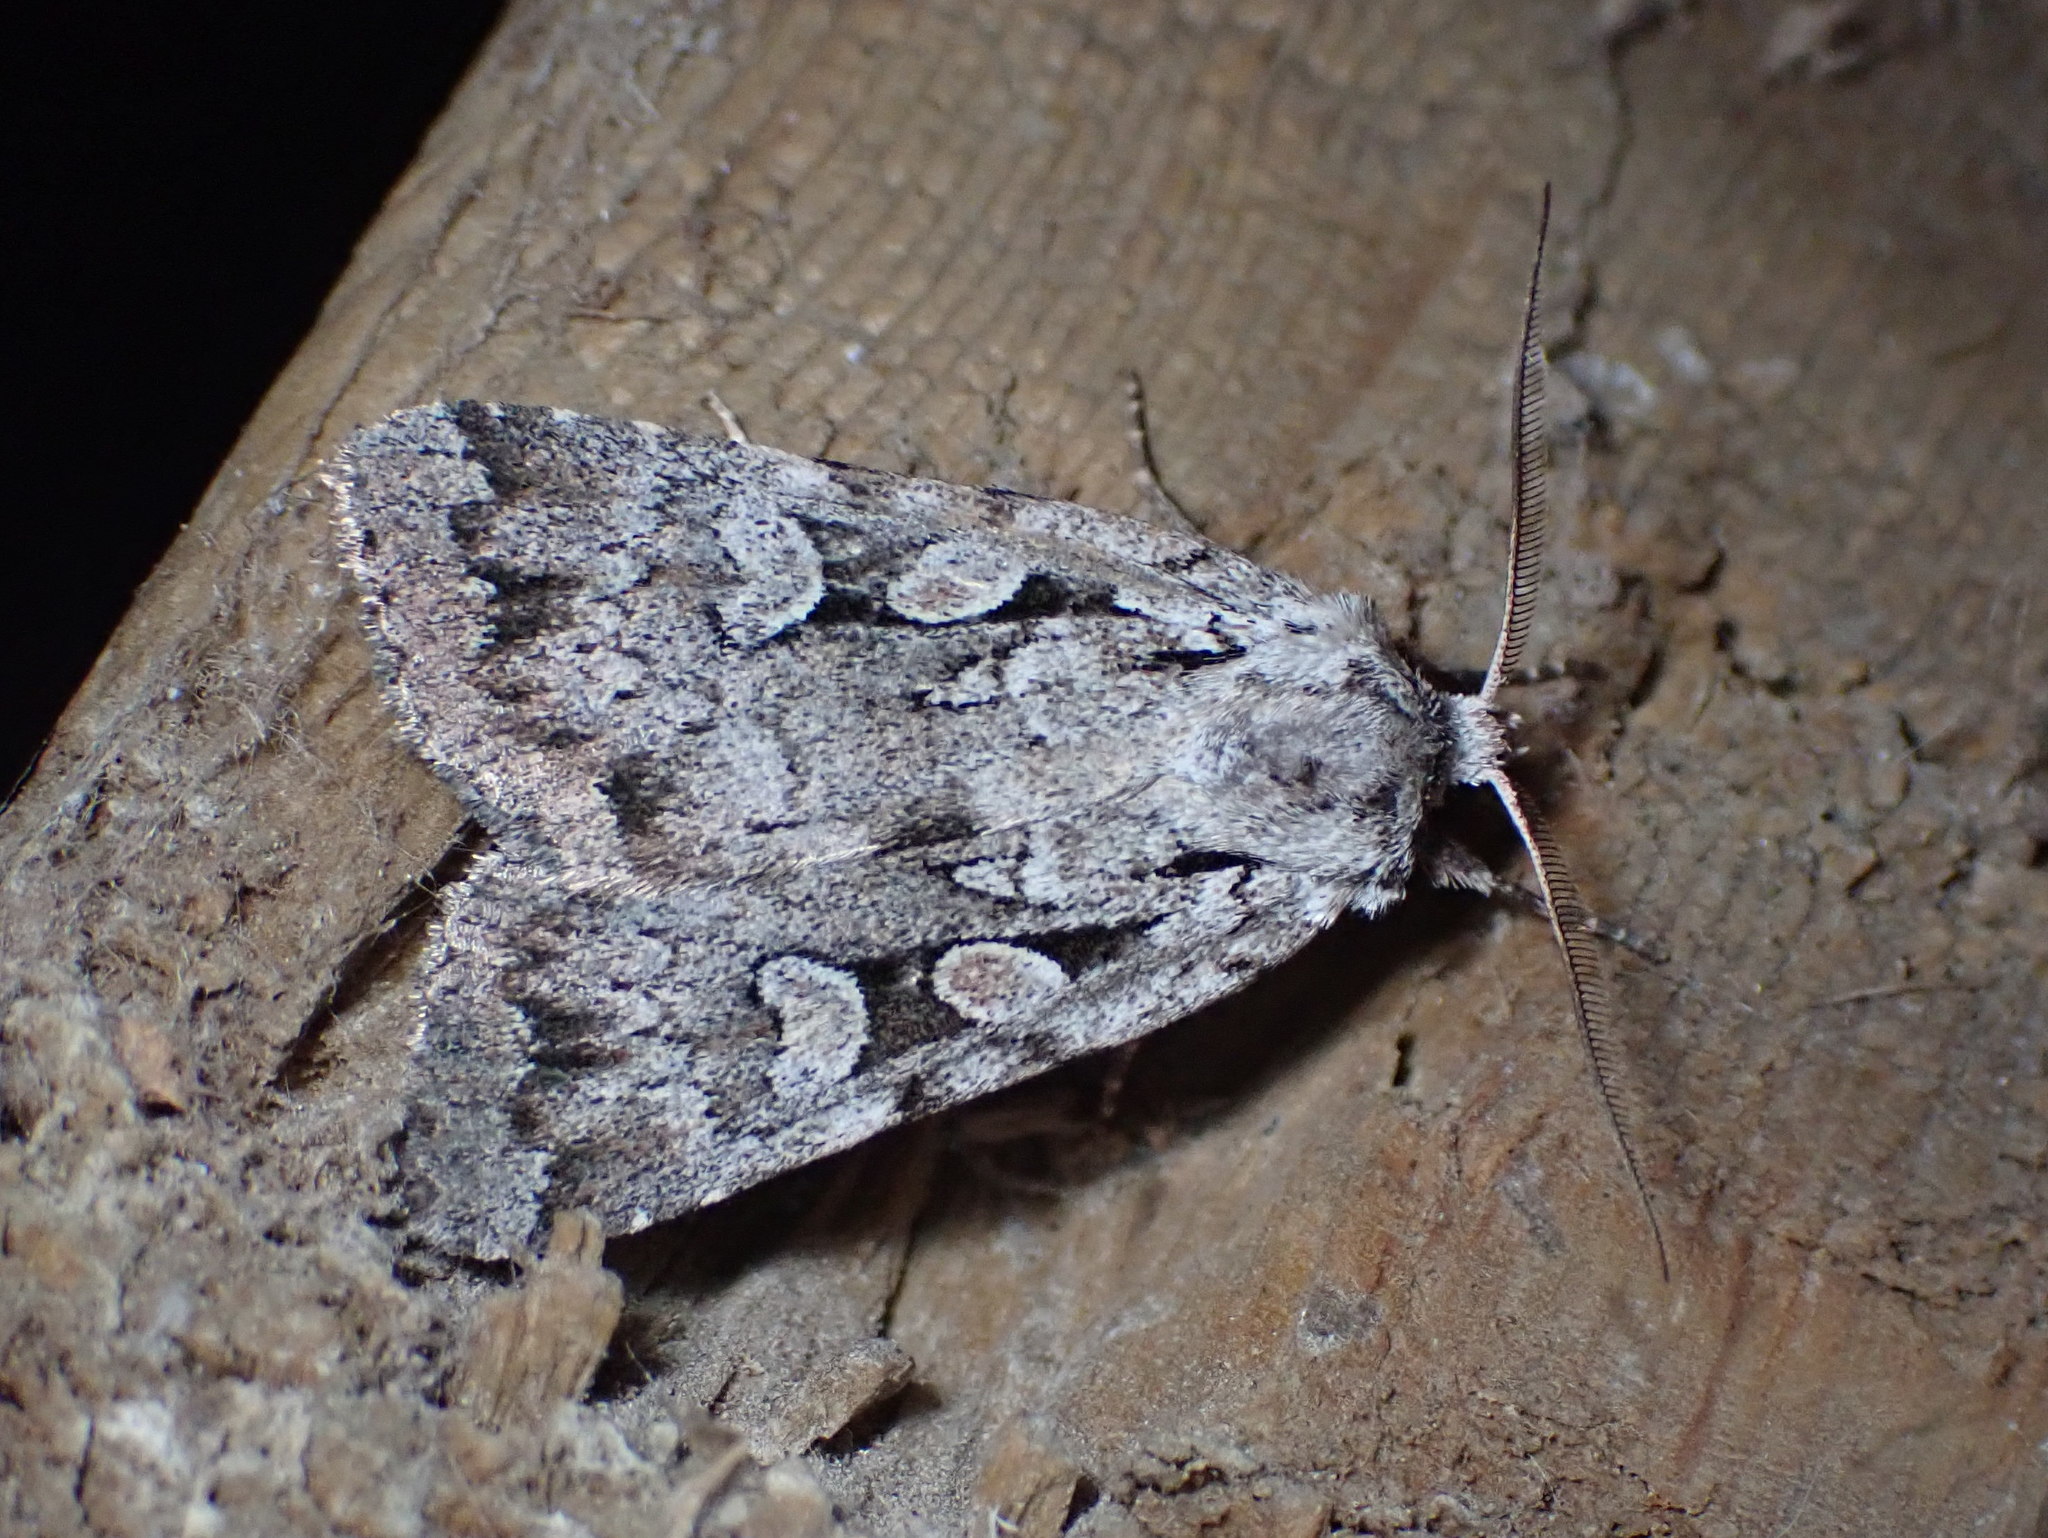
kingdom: Animalia
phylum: Arthropoda
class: Insecta
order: Lepidoptera
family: Noctuidae
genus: Xestia
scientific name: Xestia badicollis
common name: Northern variable dart
